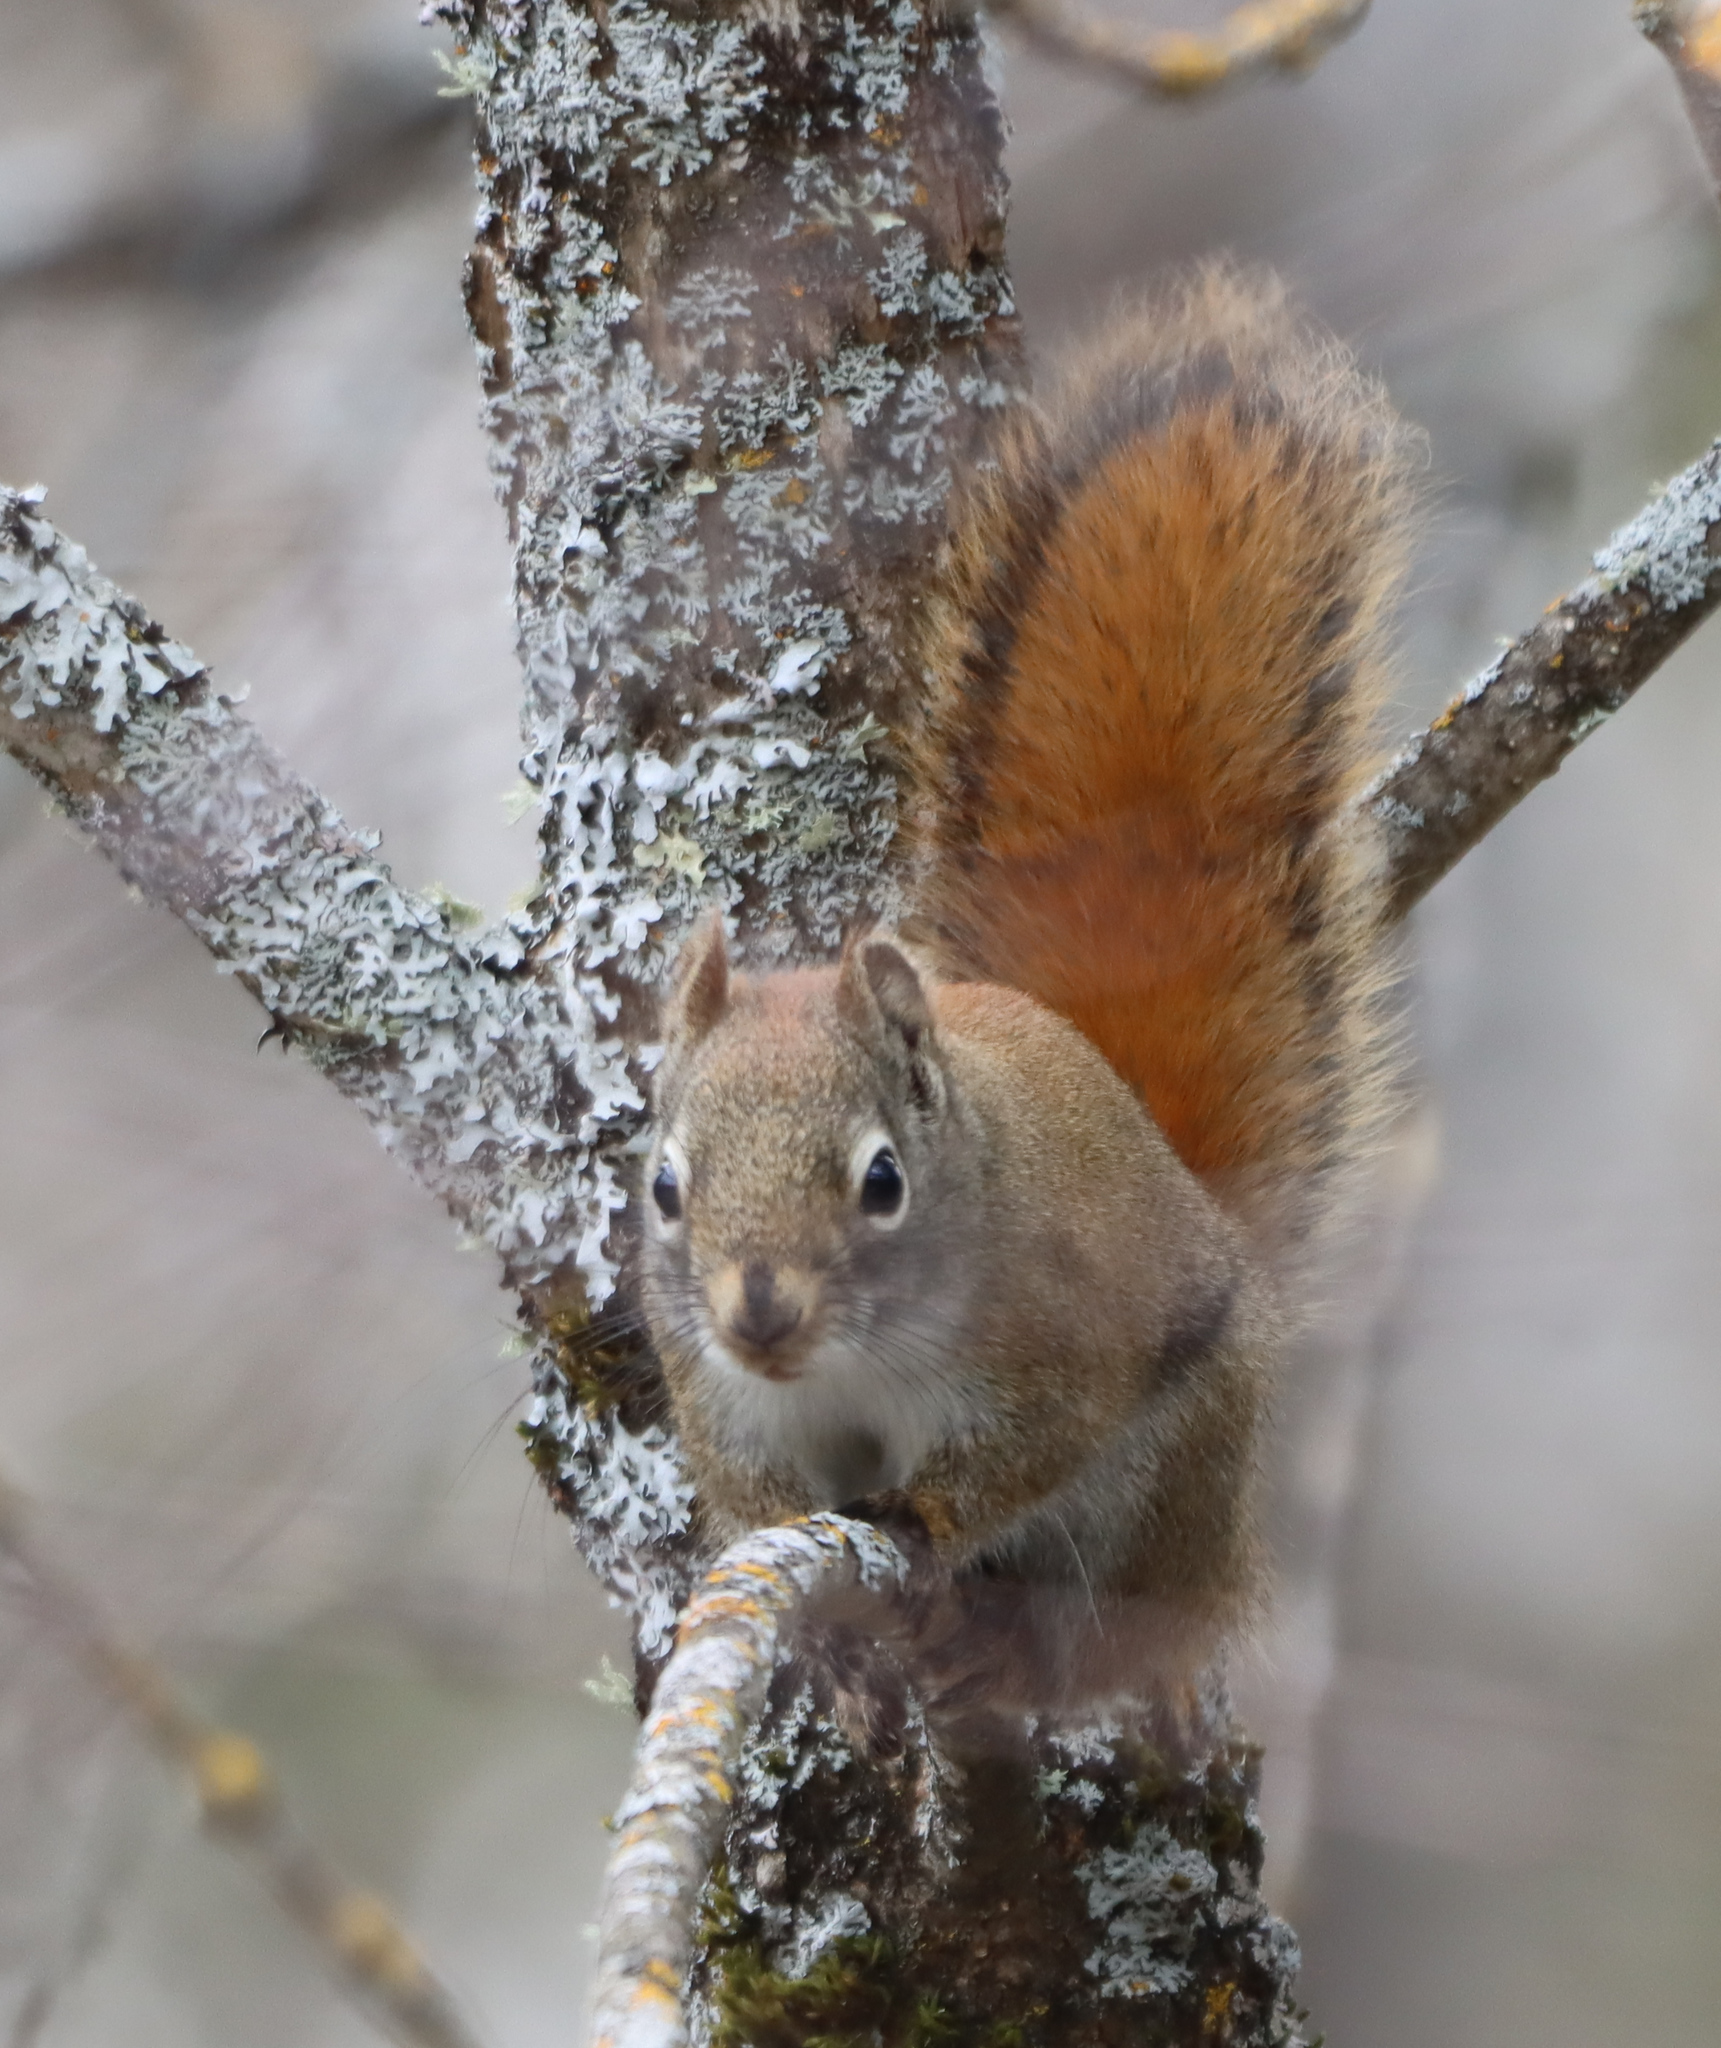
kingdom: Animalia
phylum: Chordata
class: Mammalia
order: Rodentia
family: Sciuridae
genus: Tamiasciurus
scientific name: Tamiasciurus hudsonicus
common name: Red squirrel
